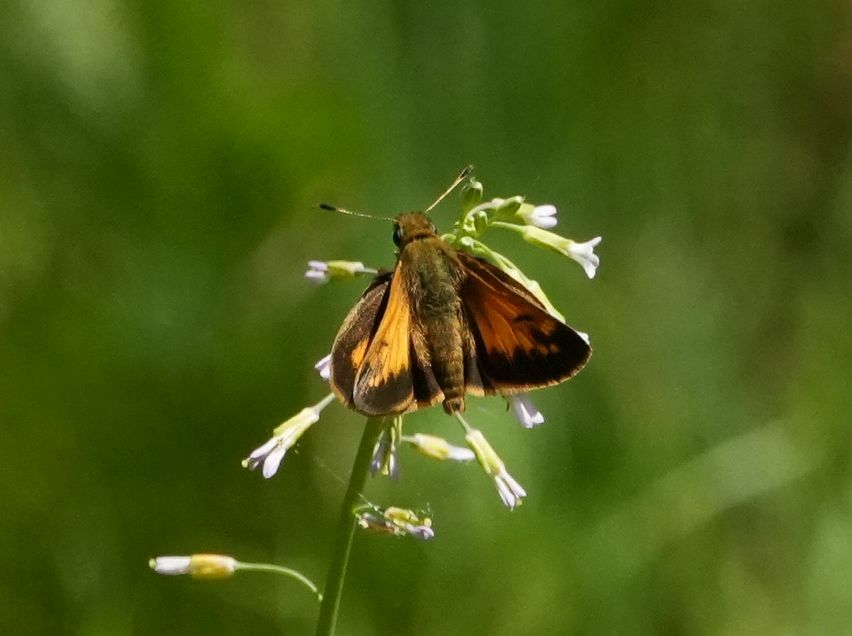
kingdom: Animalia
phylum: Arthropoda
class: Insecta
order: Lepidoptera
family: Hesperiidae
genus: Lon
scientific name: Lon hobomok
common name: Hobomok skipper
